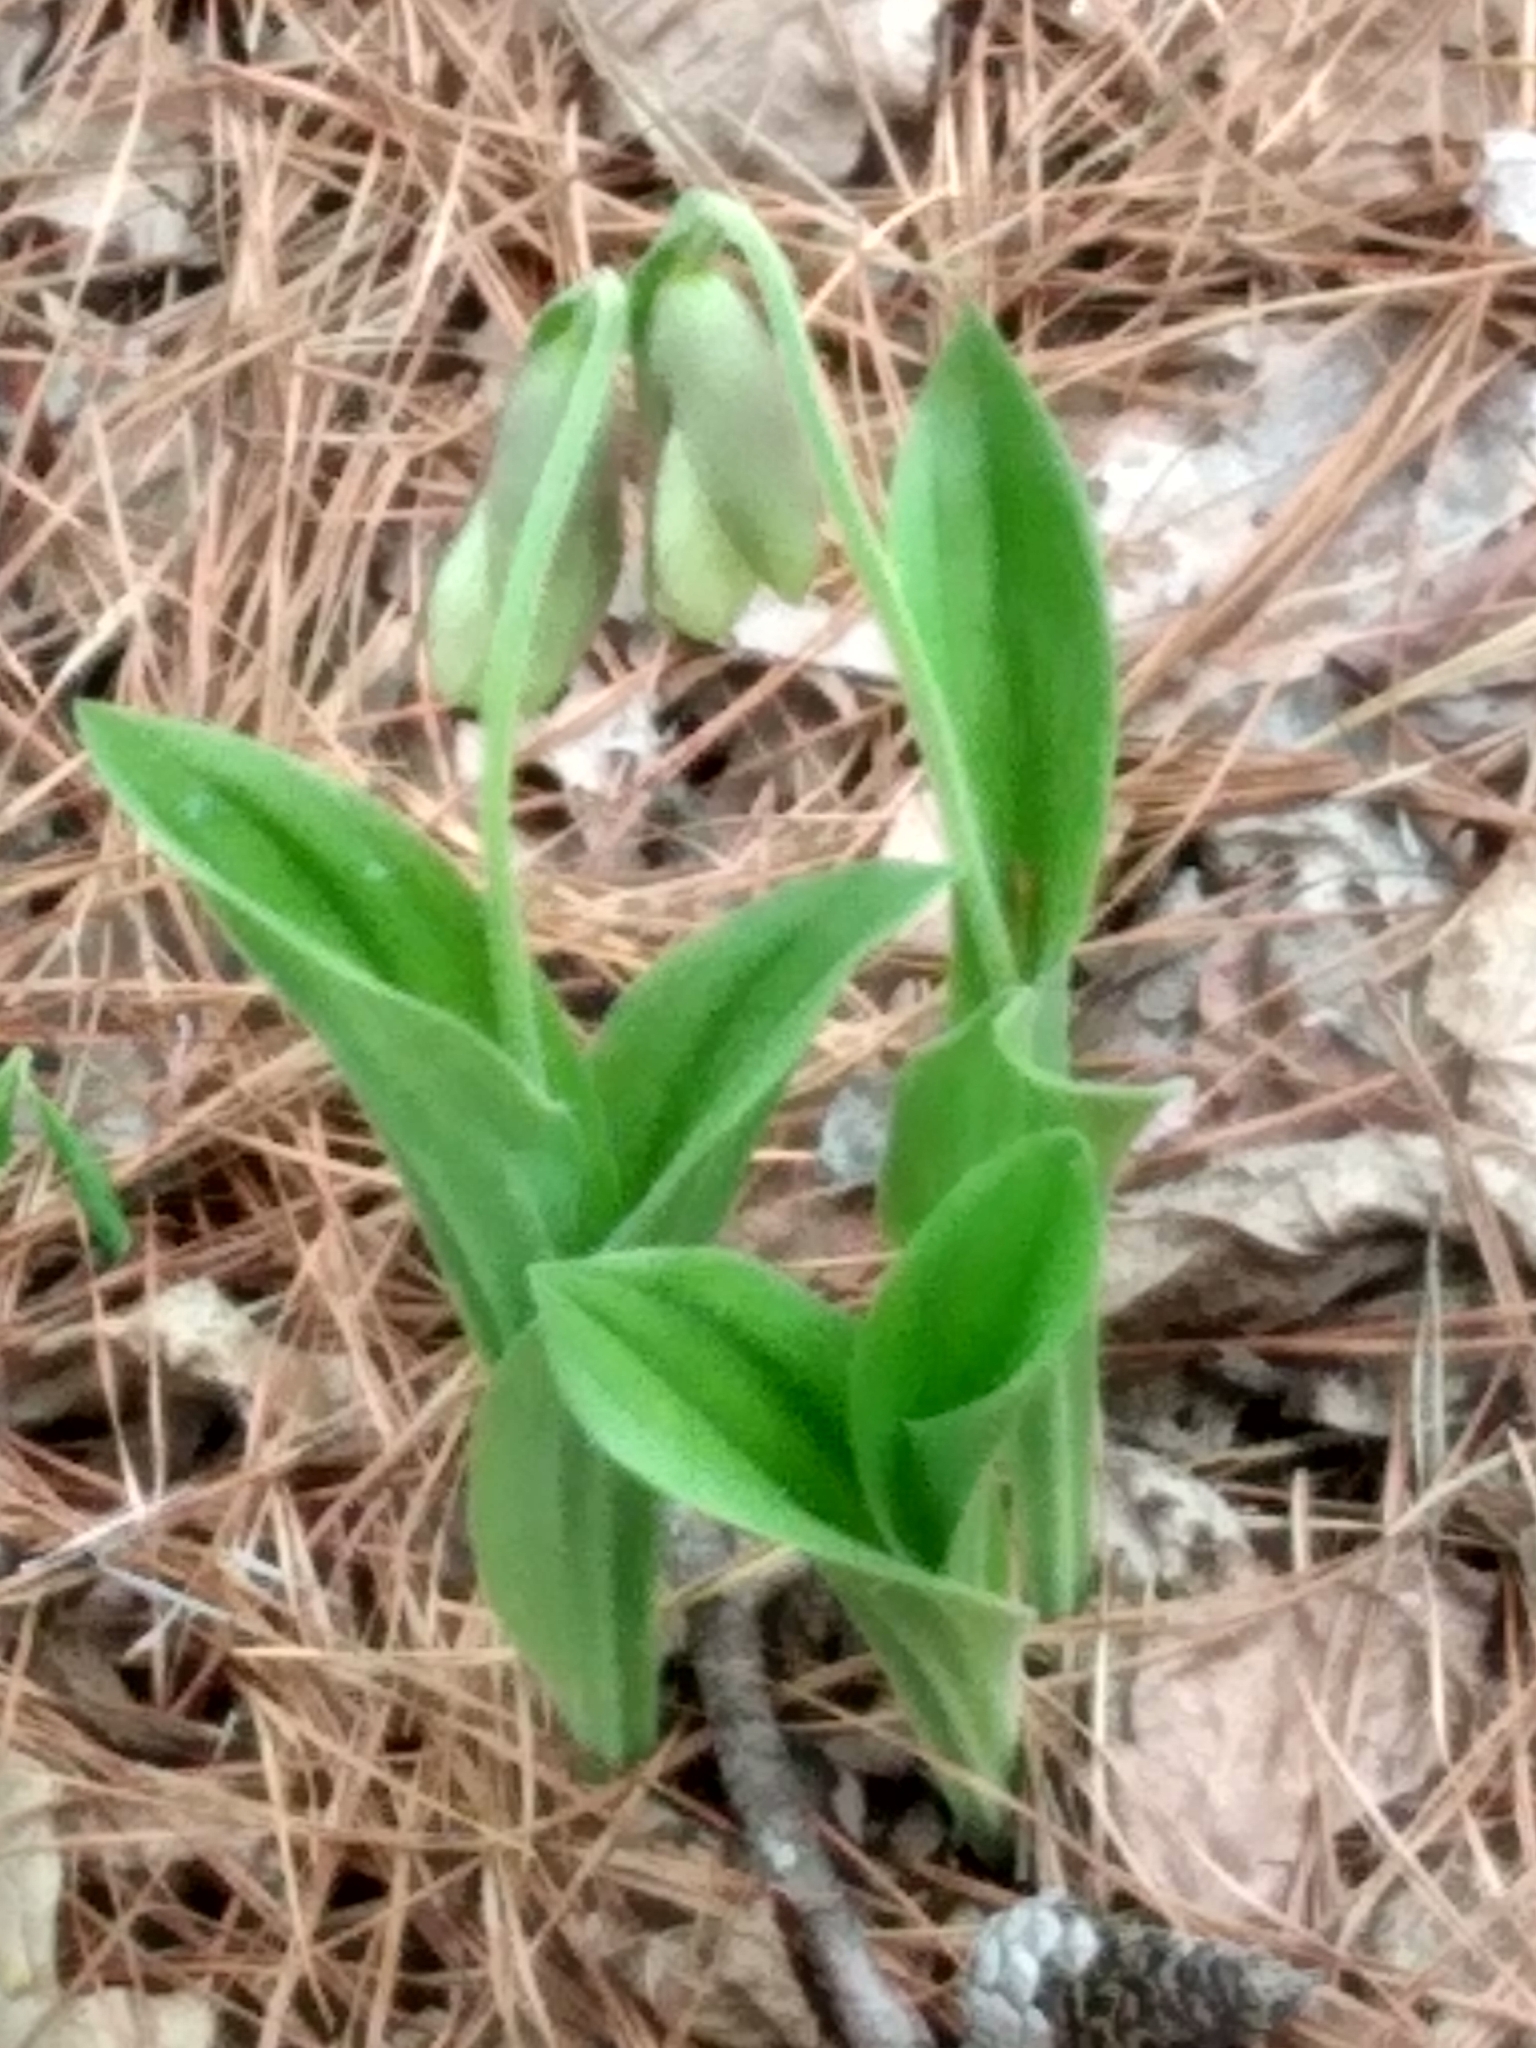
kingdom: Plantae
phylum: Tracheophyta
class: Liliopsida
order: Asparagales
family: Orchidaceae
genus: Cypripedium
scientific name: Cypripedium acaule
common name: Pink lady's-slipper
